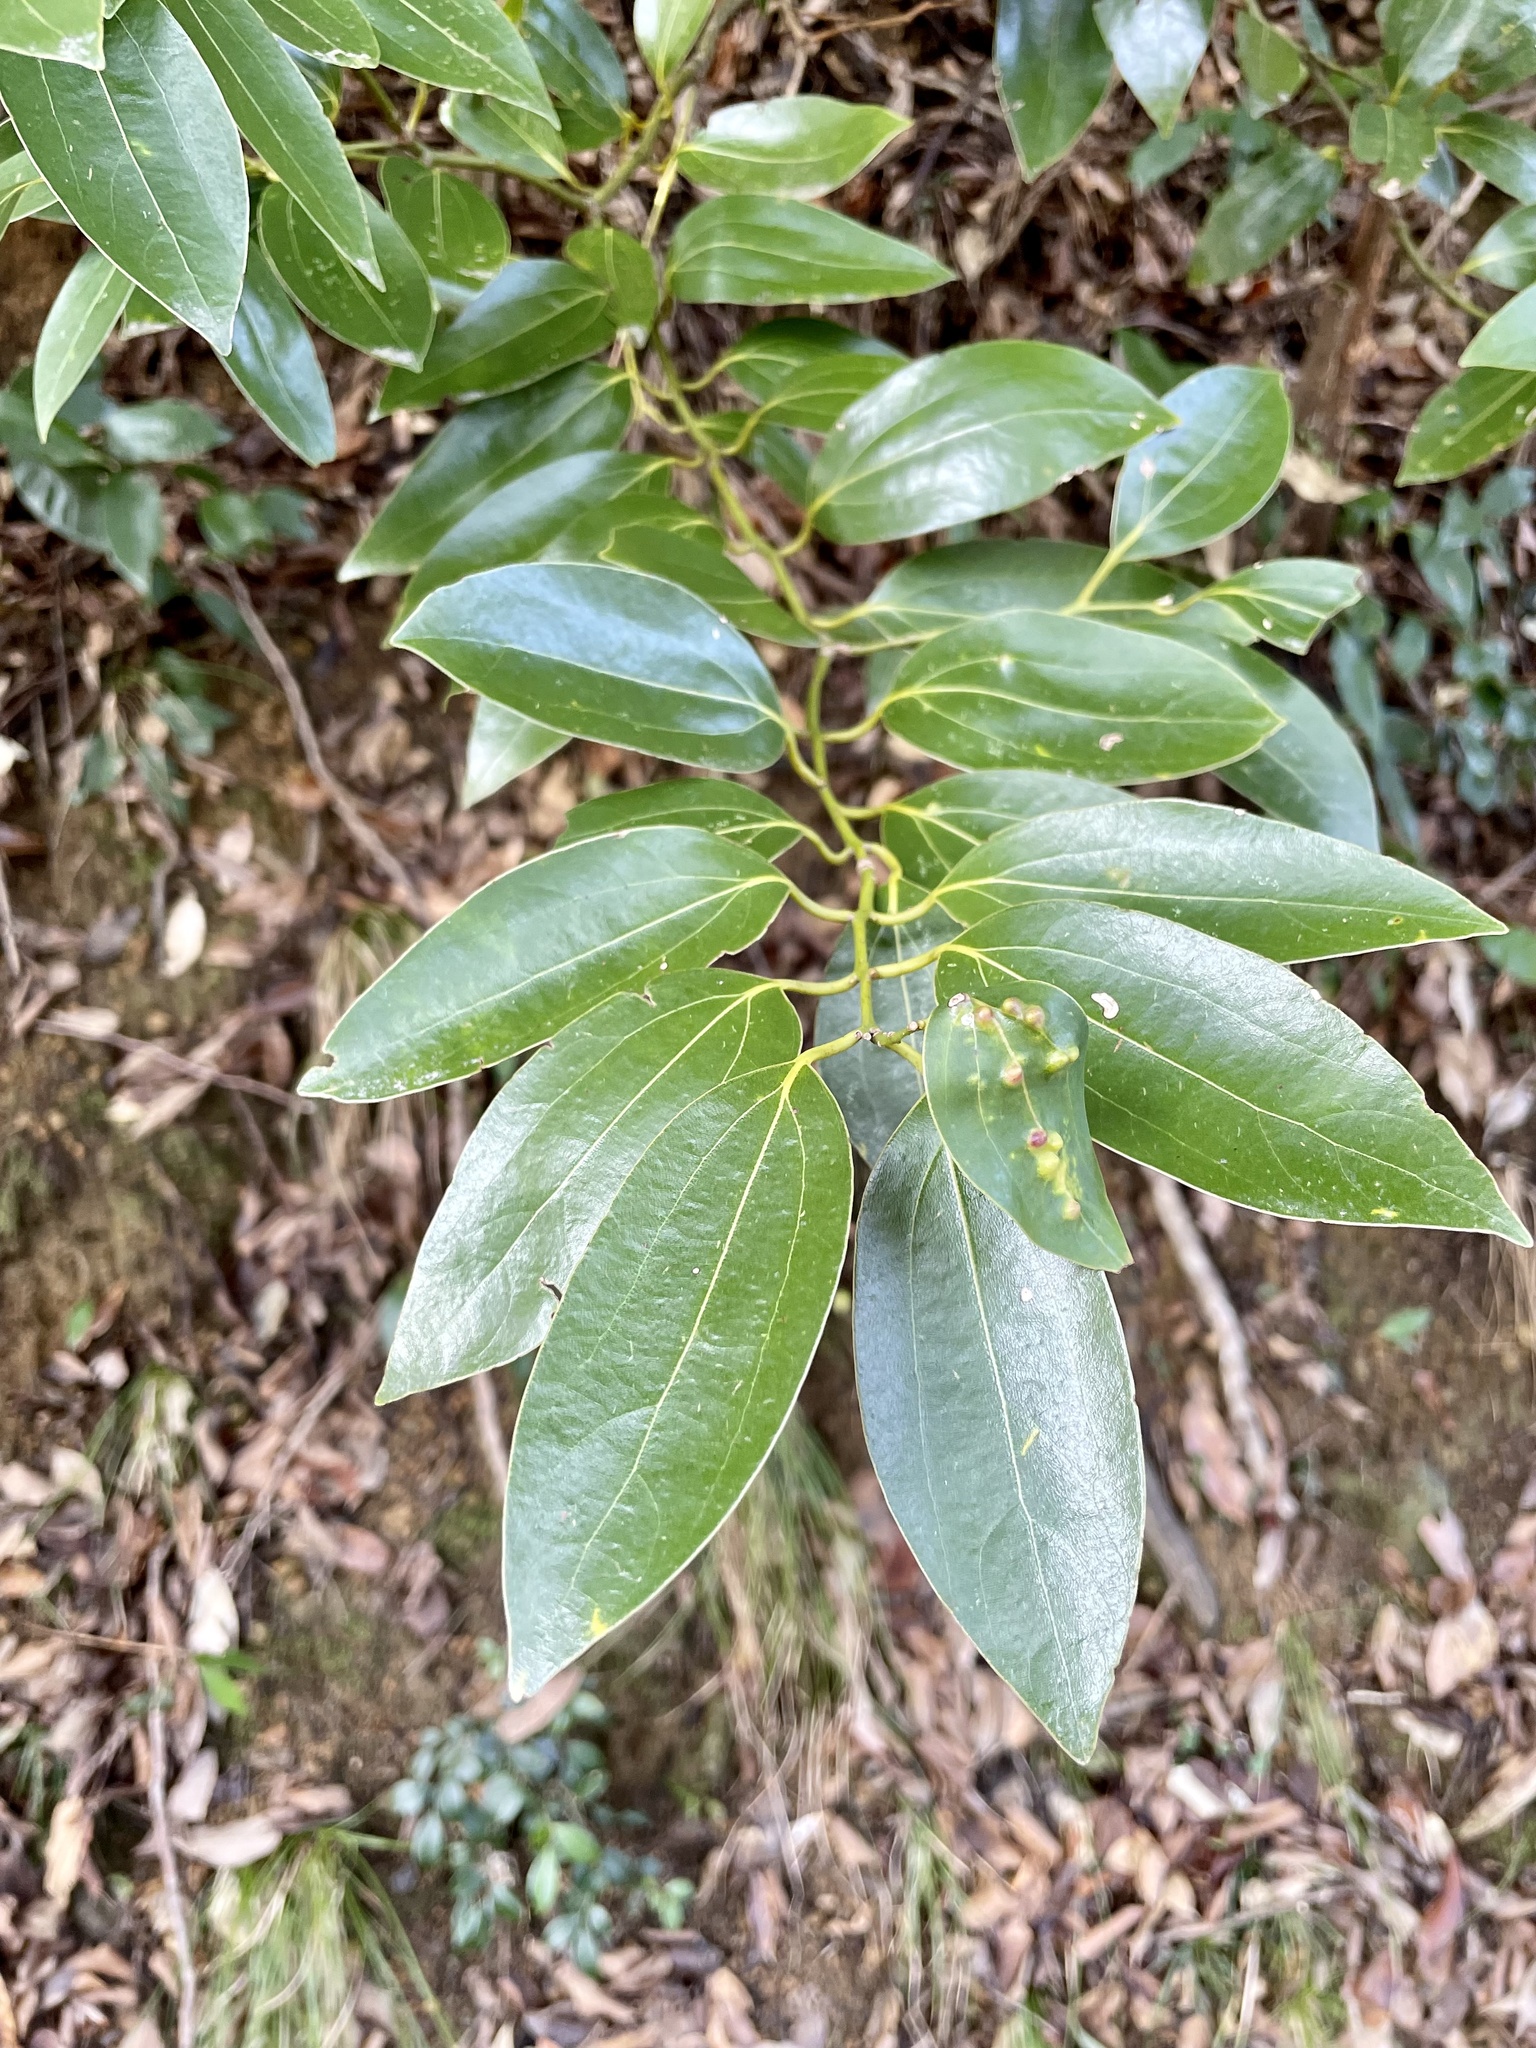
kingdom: Plantae
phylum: Tracheophyta
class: Magnoliopsida
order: Laurales
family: Lauraceae
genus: Cinnamomum
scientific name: Cinnamomum chekiangense
